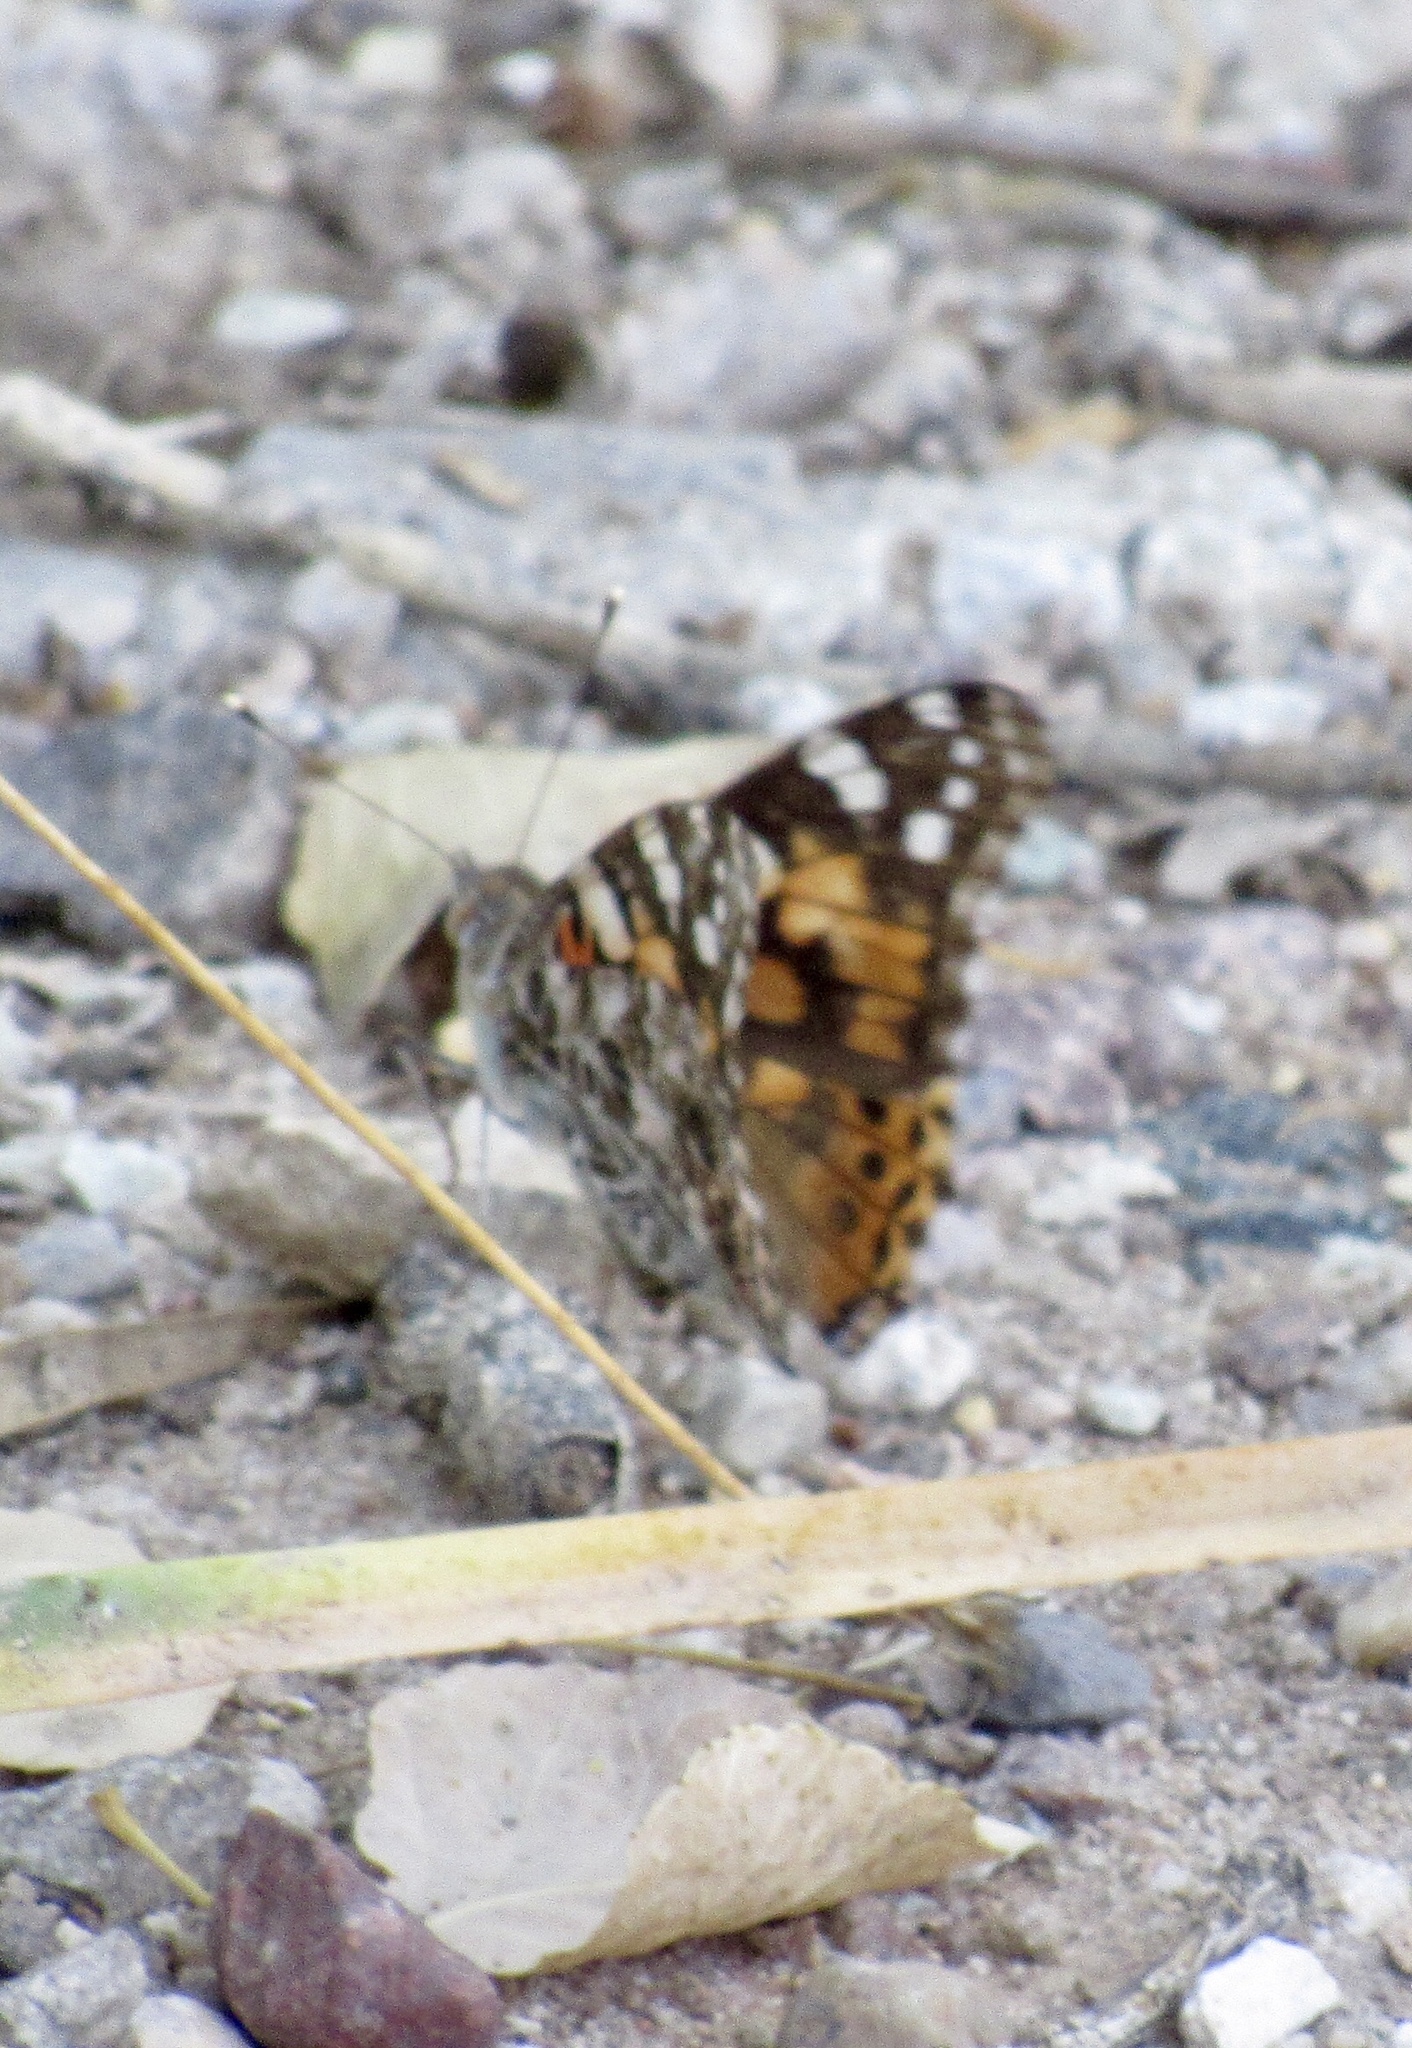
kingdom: Animalia
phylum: Arthropoda
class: Insecta
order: Lepidoptera
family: Nymphalidae
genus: Vanessa
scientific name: Vanessa cardui
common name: Painted lady
